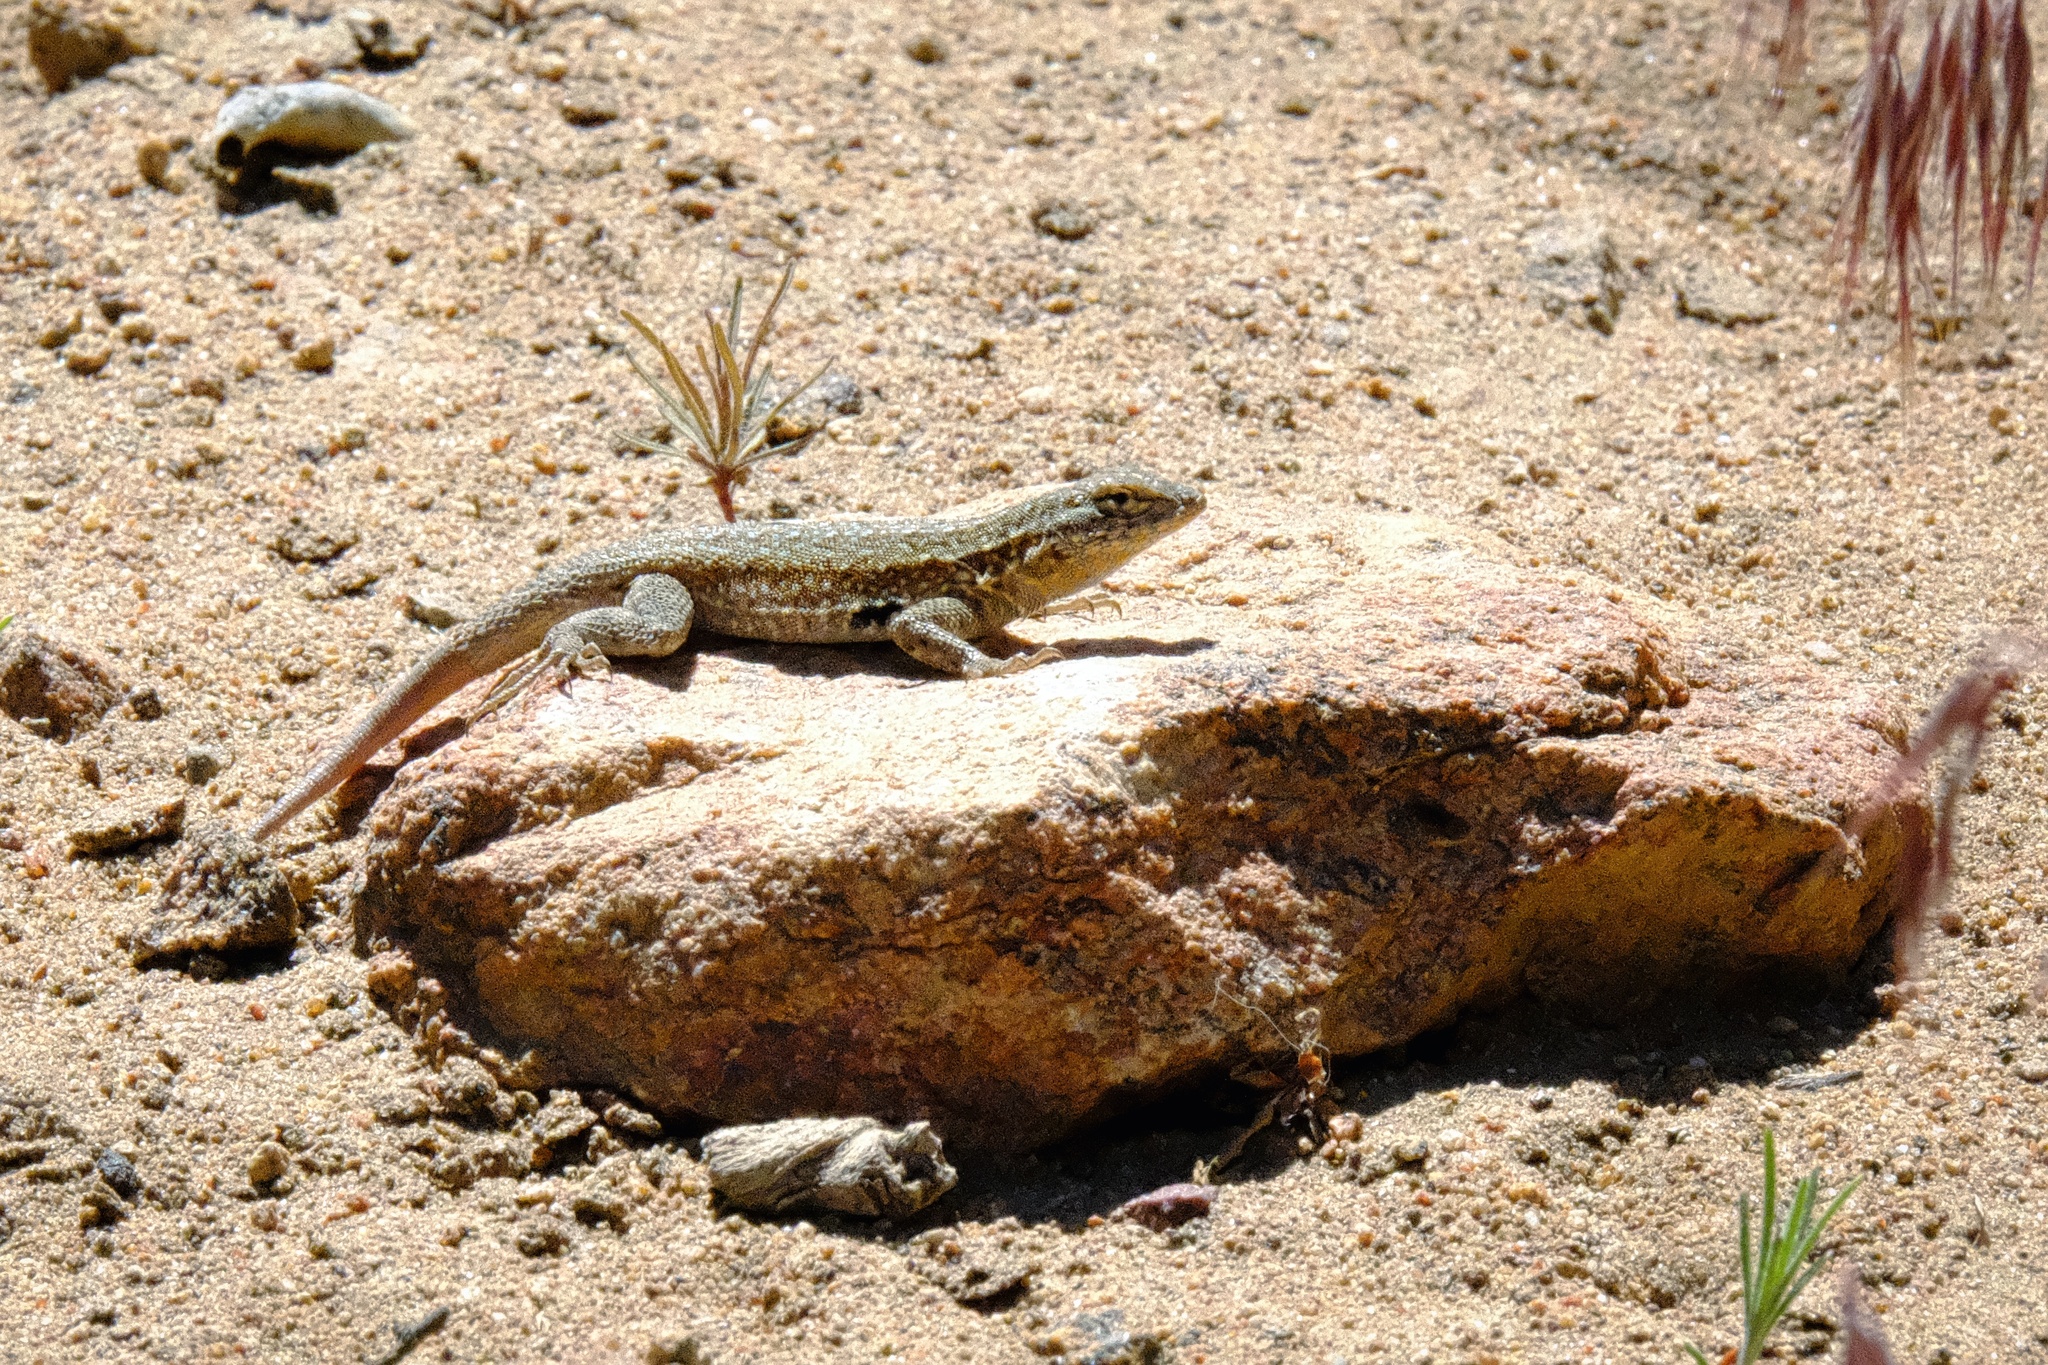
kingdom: Animalia
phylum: Chordata
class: Squamata
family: Phrynosomatidae
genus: Uta
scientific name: Uta stansburiana
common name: Side-blotched lizard
